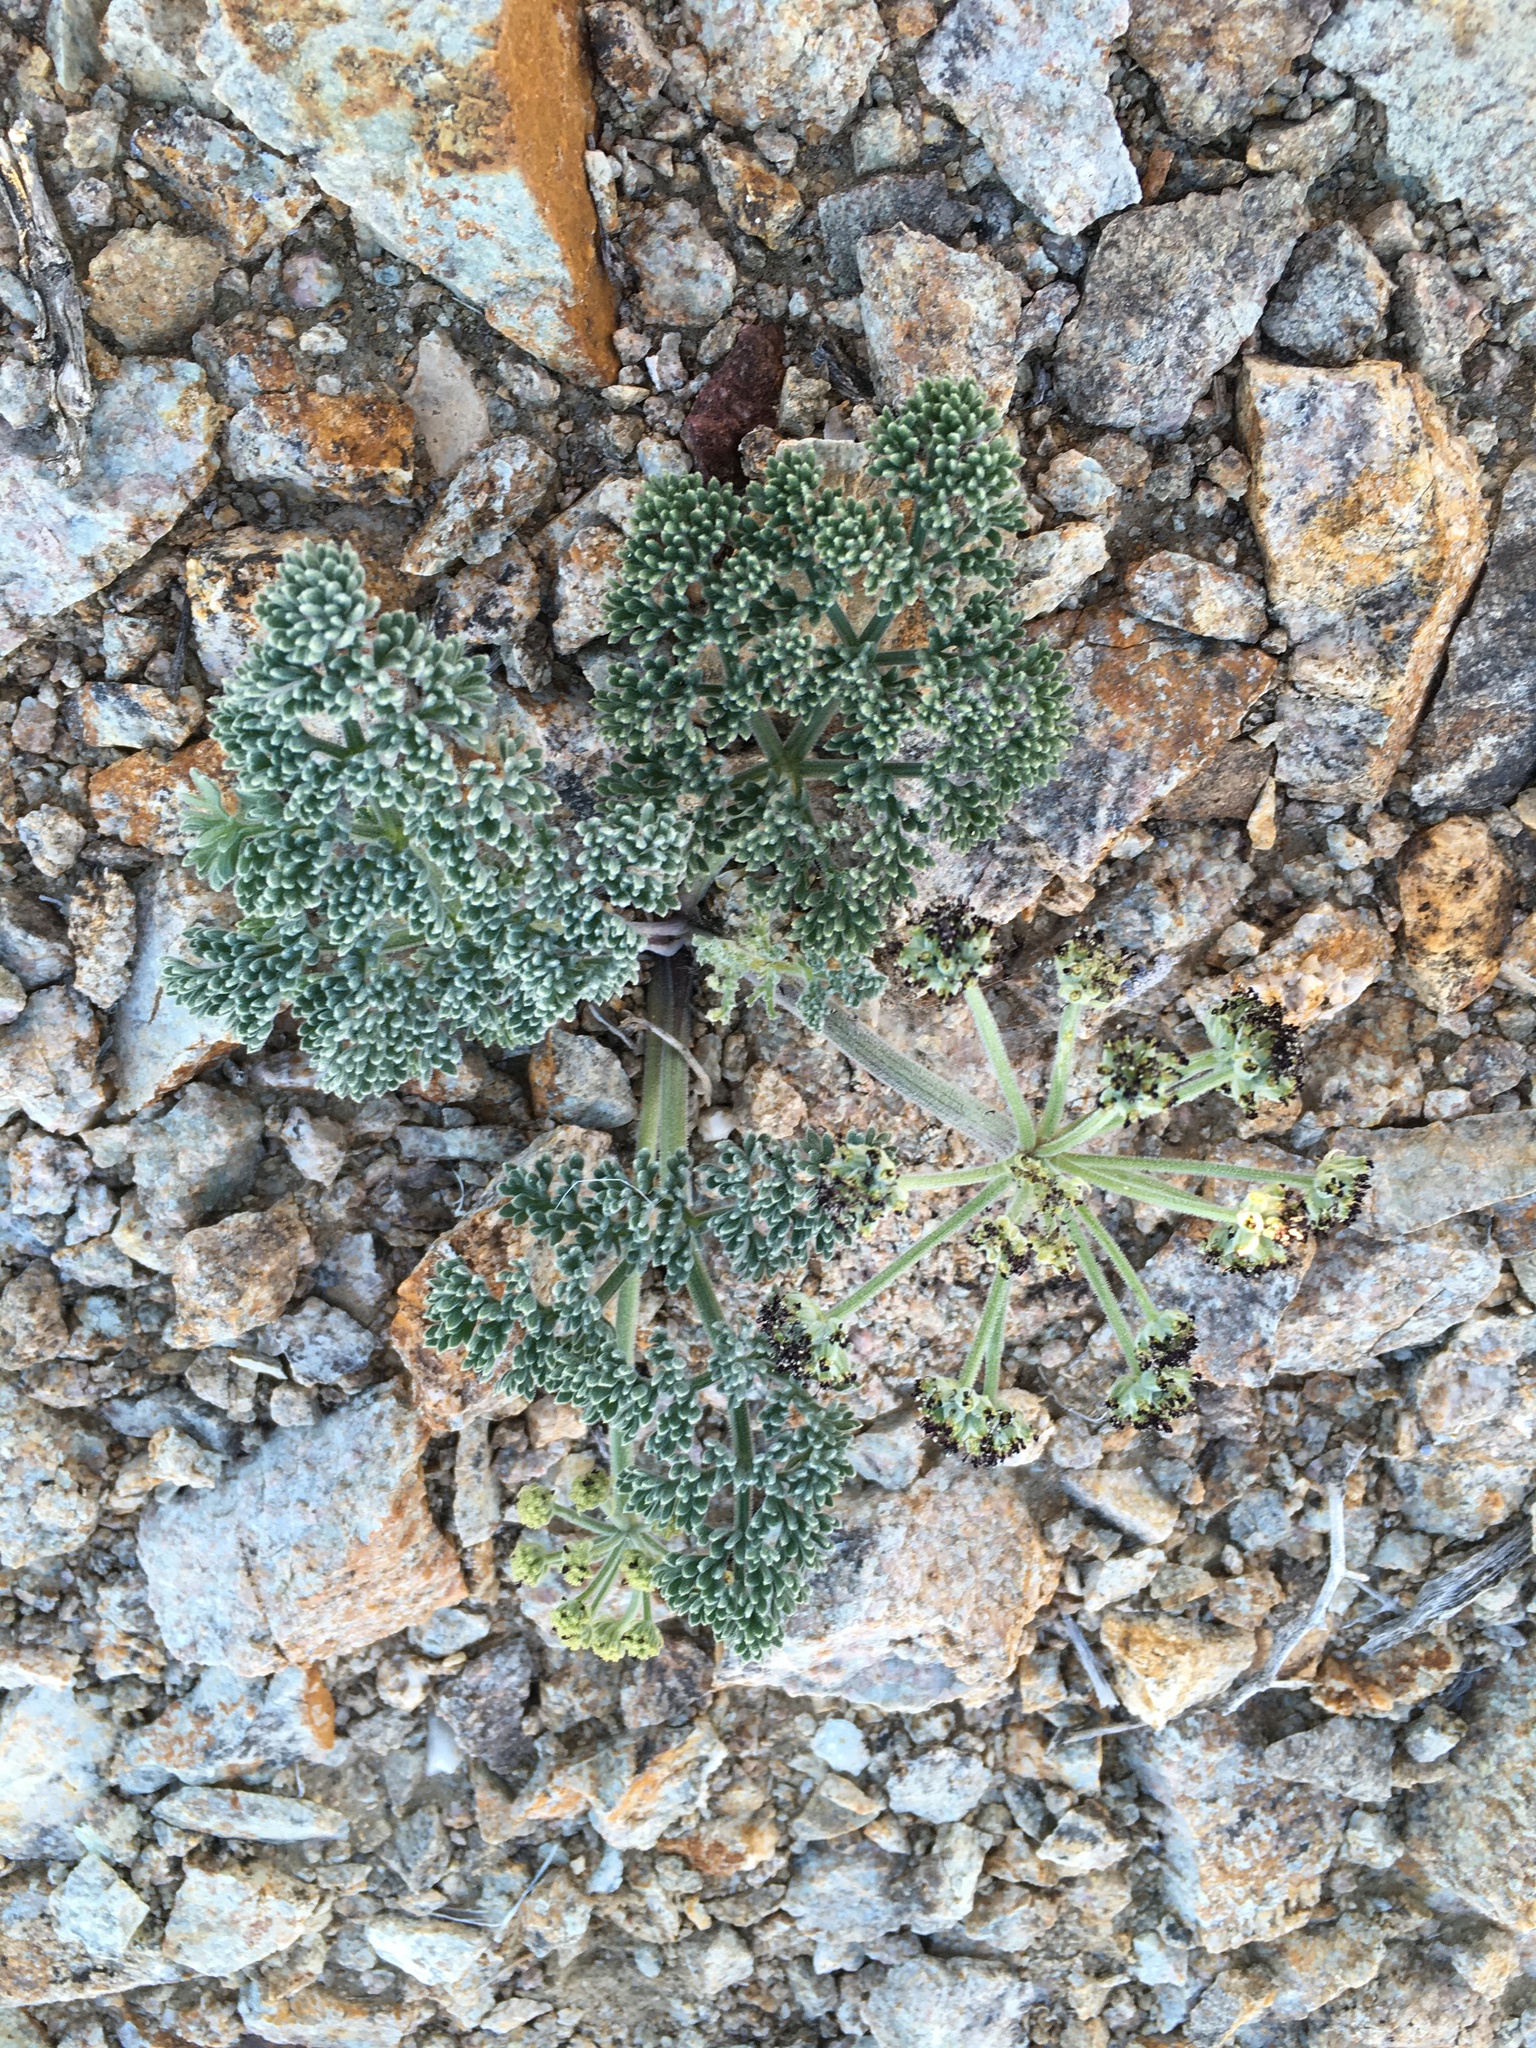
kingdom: Plantae
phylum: Tracheophyta
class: Magnoliopsida
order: Apiales
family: Apiaceae
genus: Lomatium
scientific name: Lomatium mohavense
